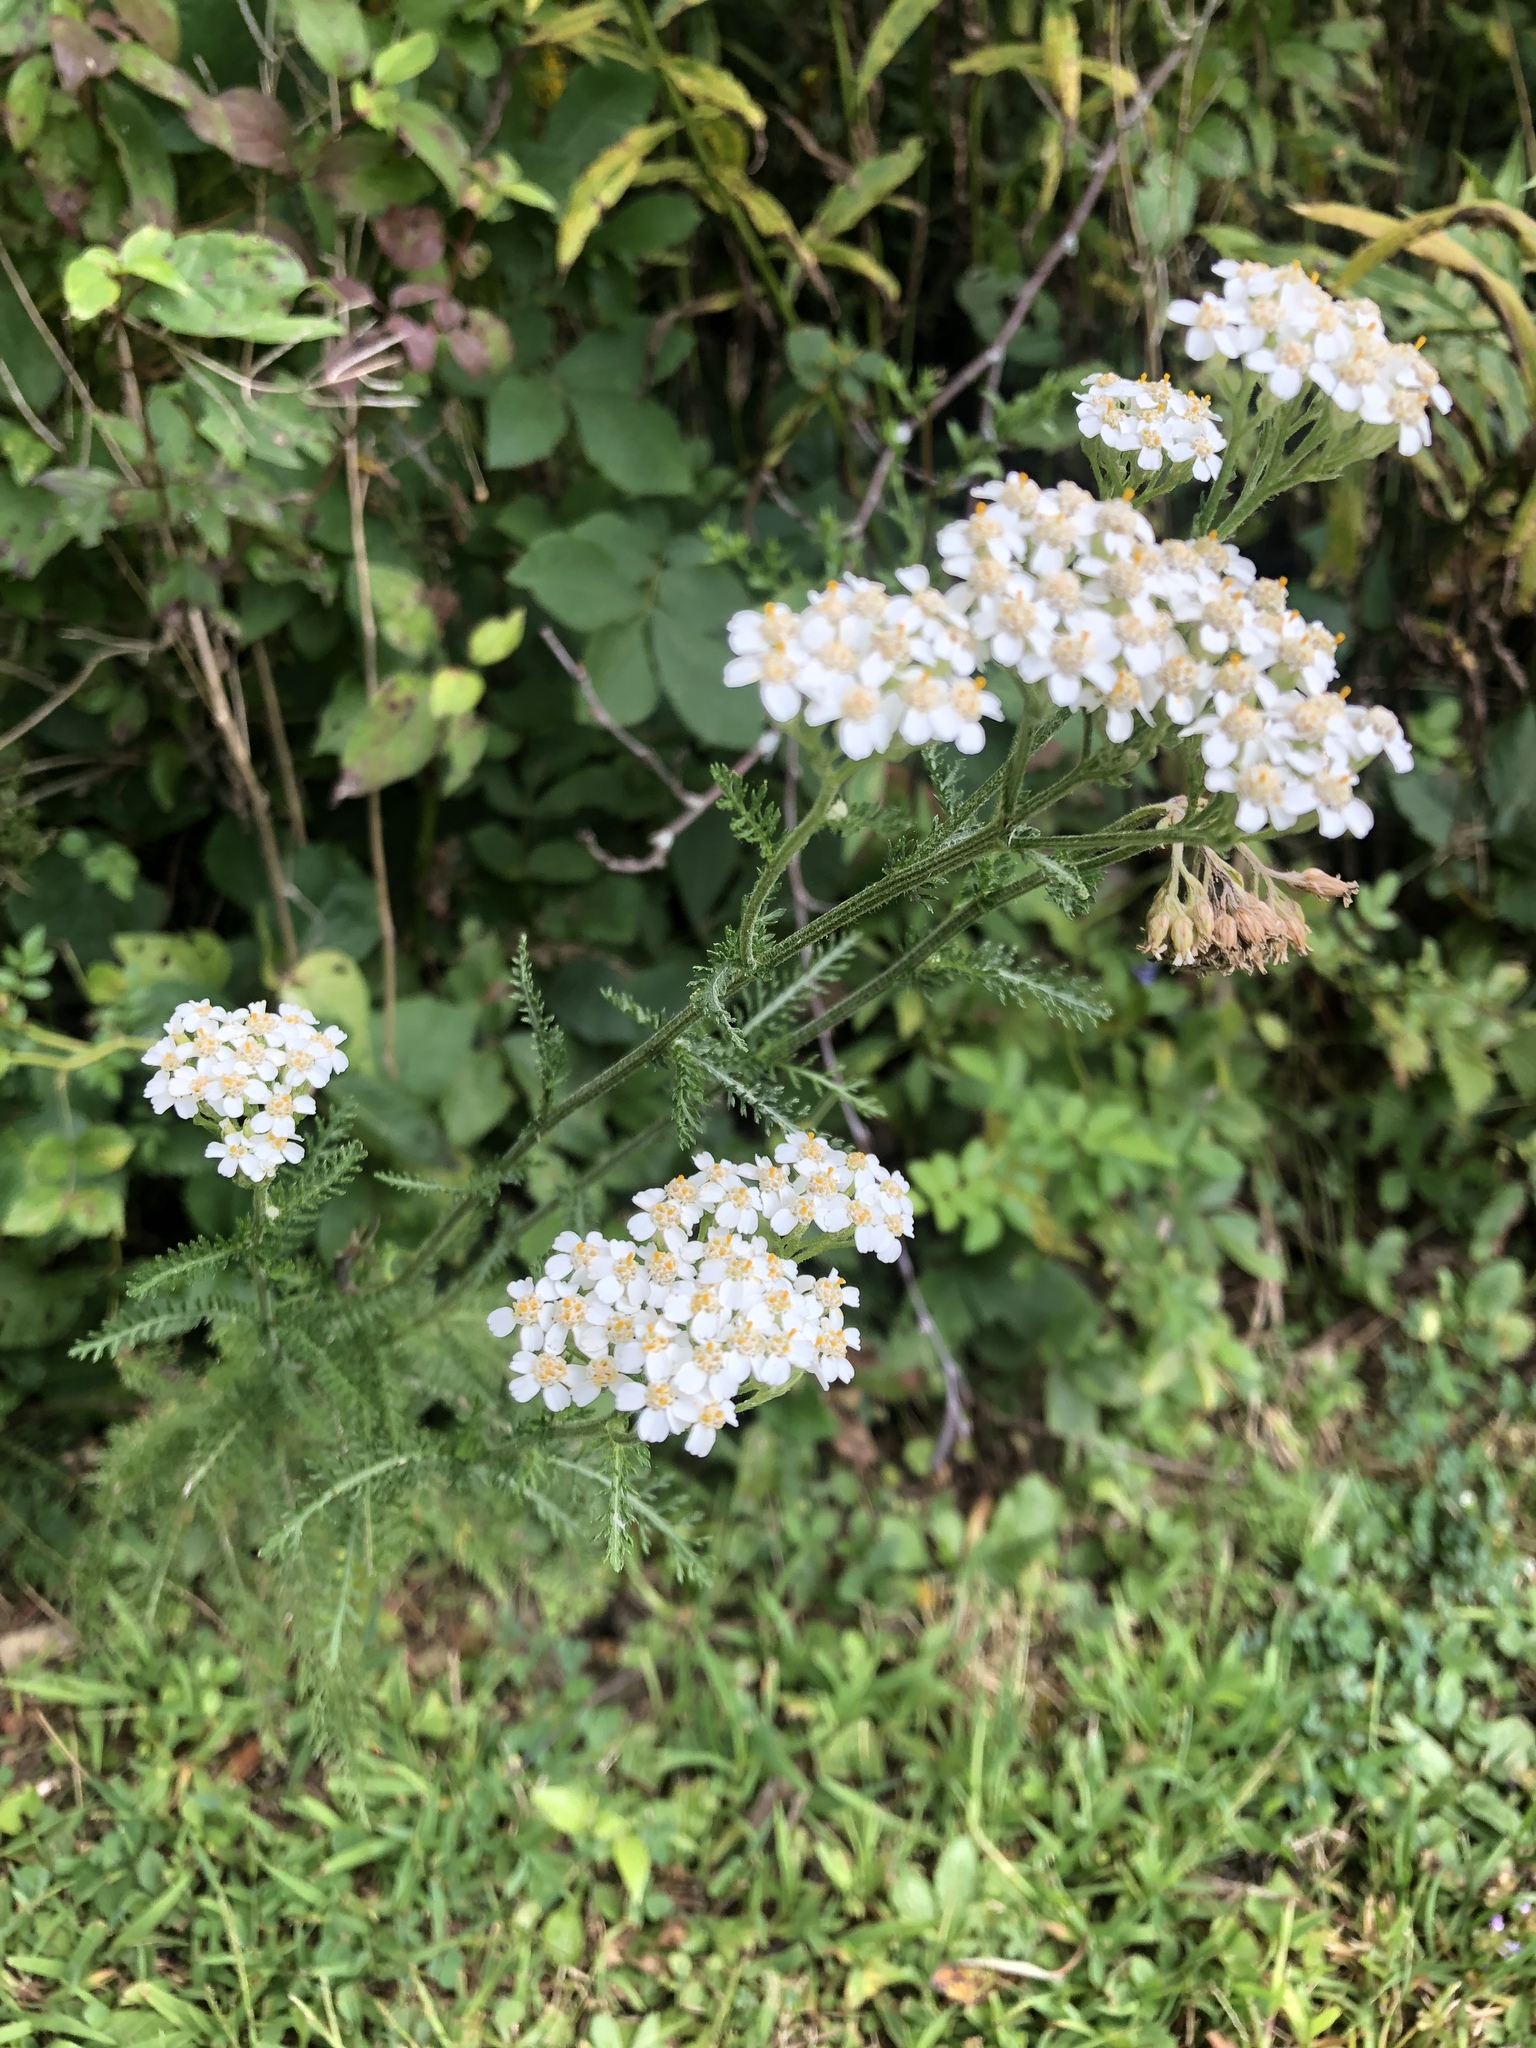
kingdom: Plantae
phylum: Tracheophyta
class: Magnoliopsida
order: Asterales
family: Asteraceae
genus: Achillea
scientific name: Achillea millefolium
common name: Yarrow
